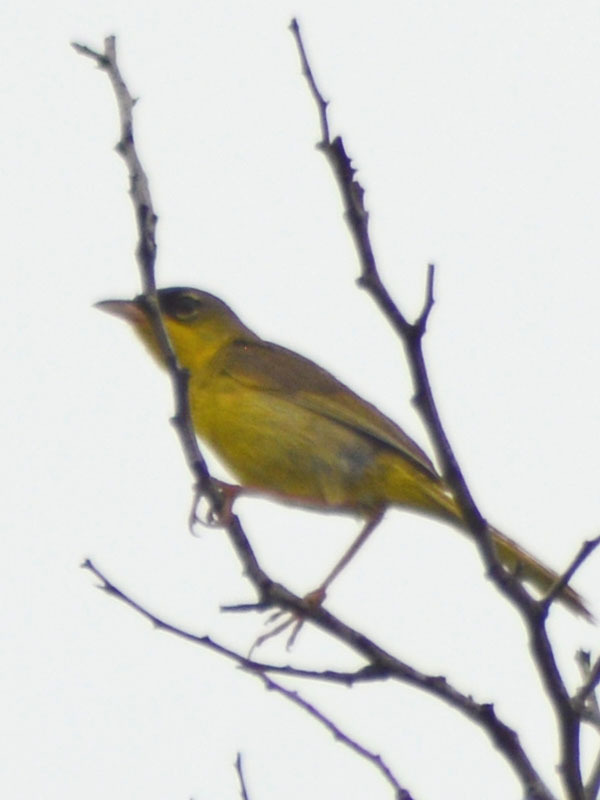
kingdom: Animalia
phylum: Chordata
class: Aves
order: Passeriformes
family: Parulidae
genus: Geothlypis
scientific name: Geothlypis poliocephala
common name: Gray-crowned yellowthroat
